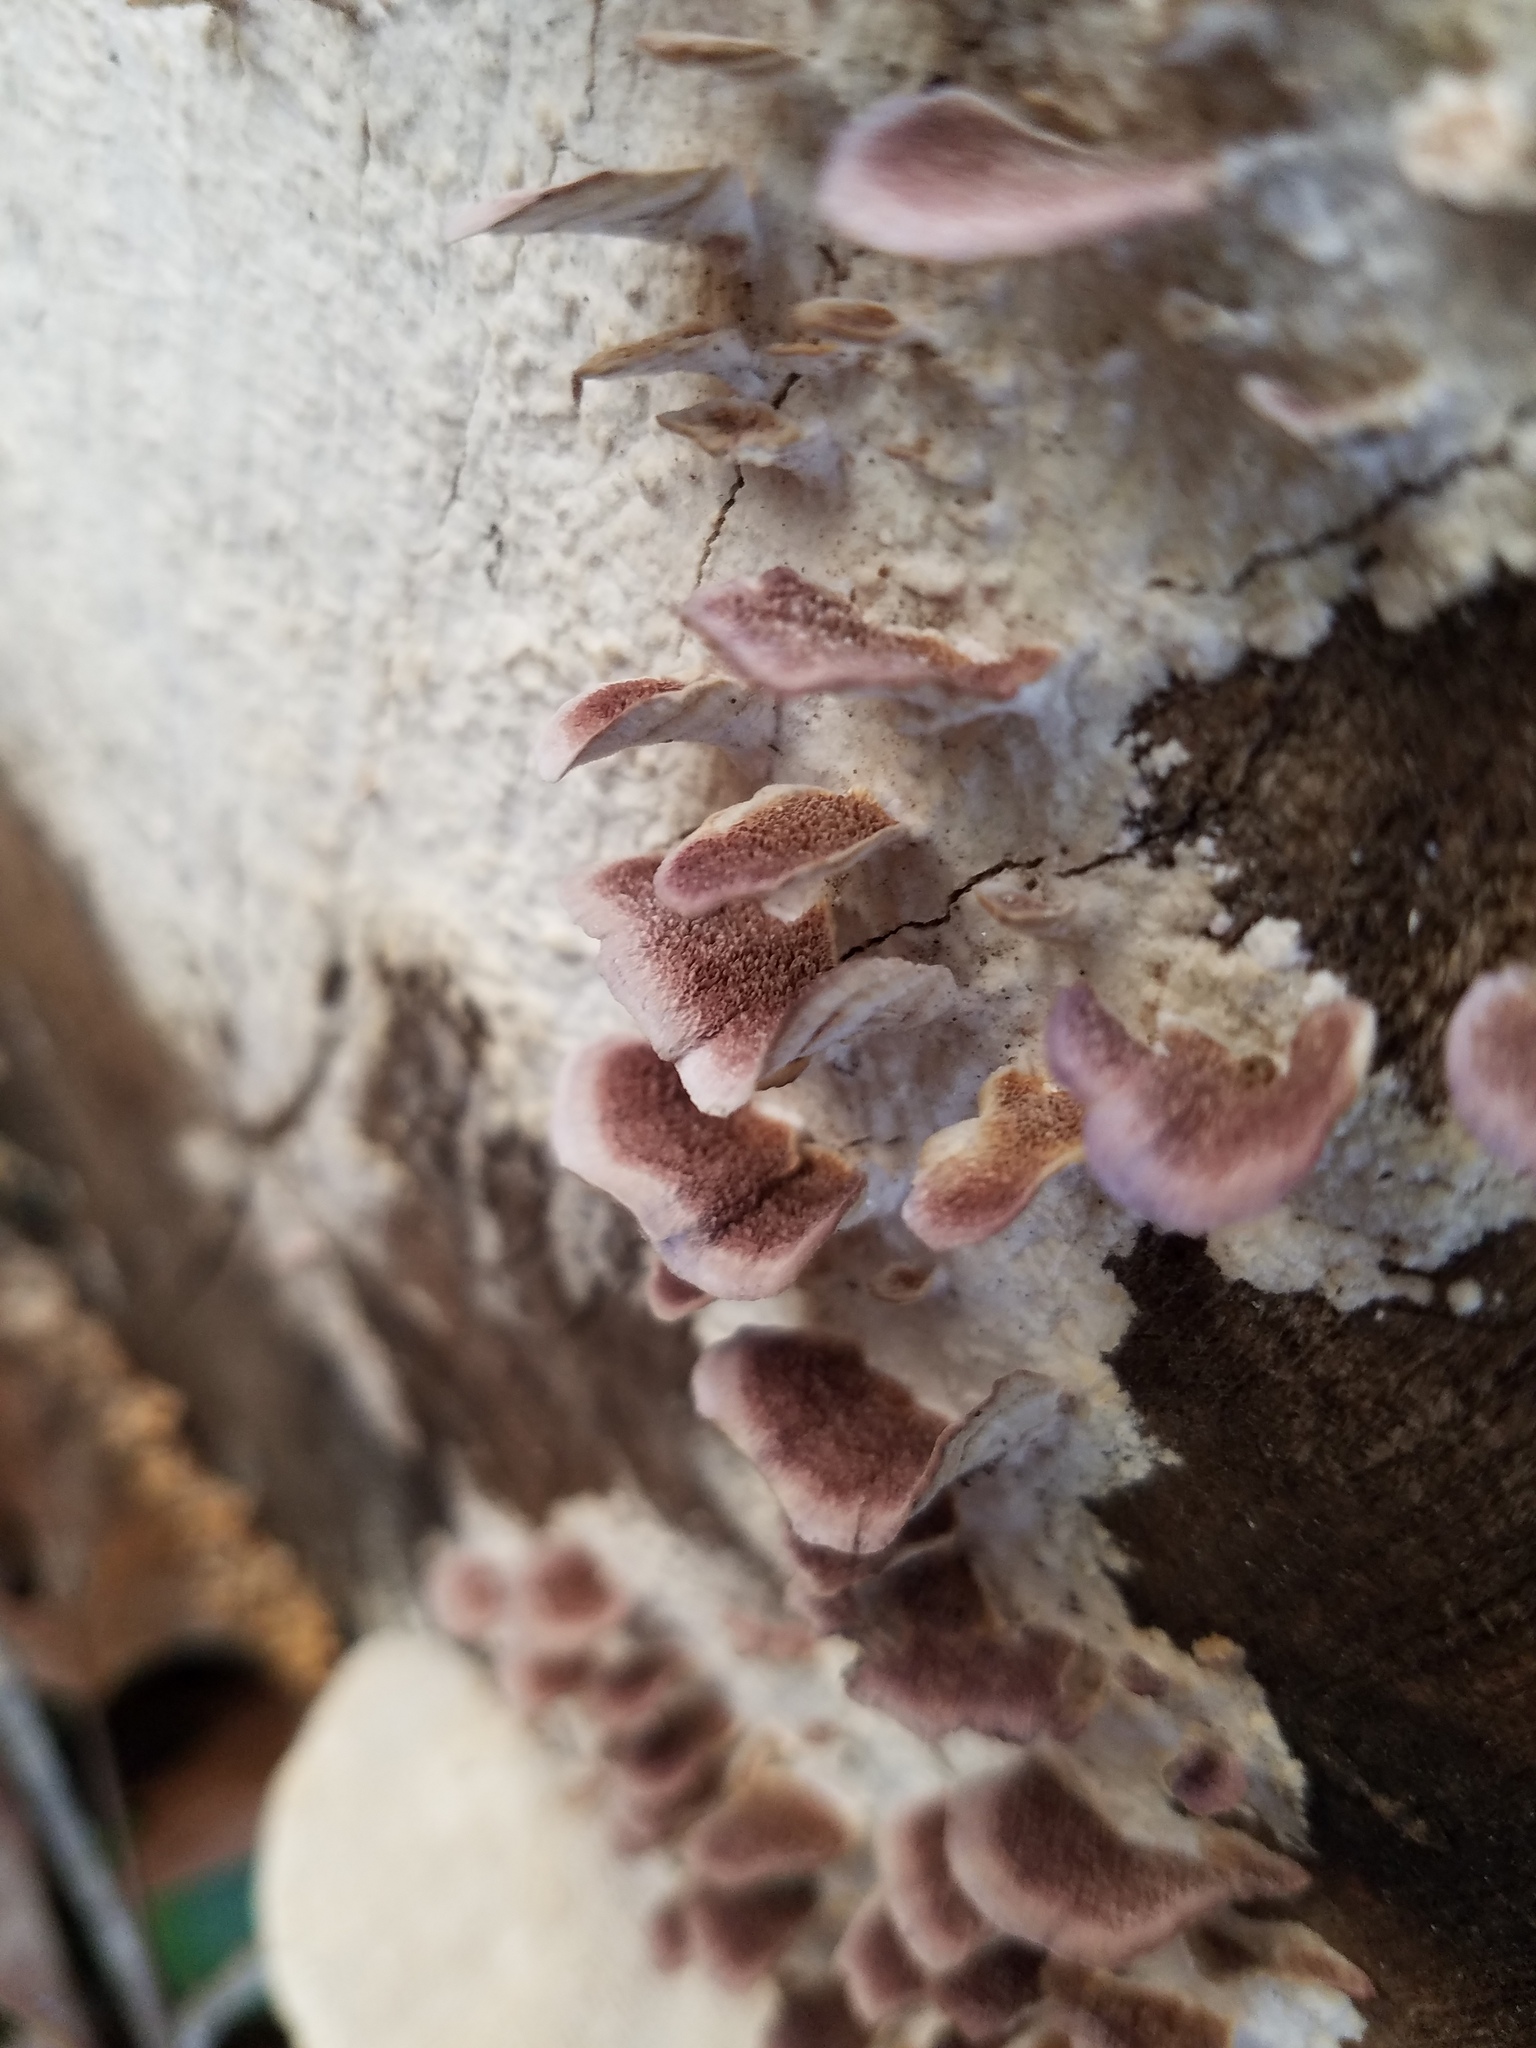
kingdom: Fungi
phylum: Basidiomycota
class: Agaricomycetes
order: Hymenochaetales
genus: Trichaptum
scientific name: Trichaptum biforme
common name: Violet-toothed polypore
